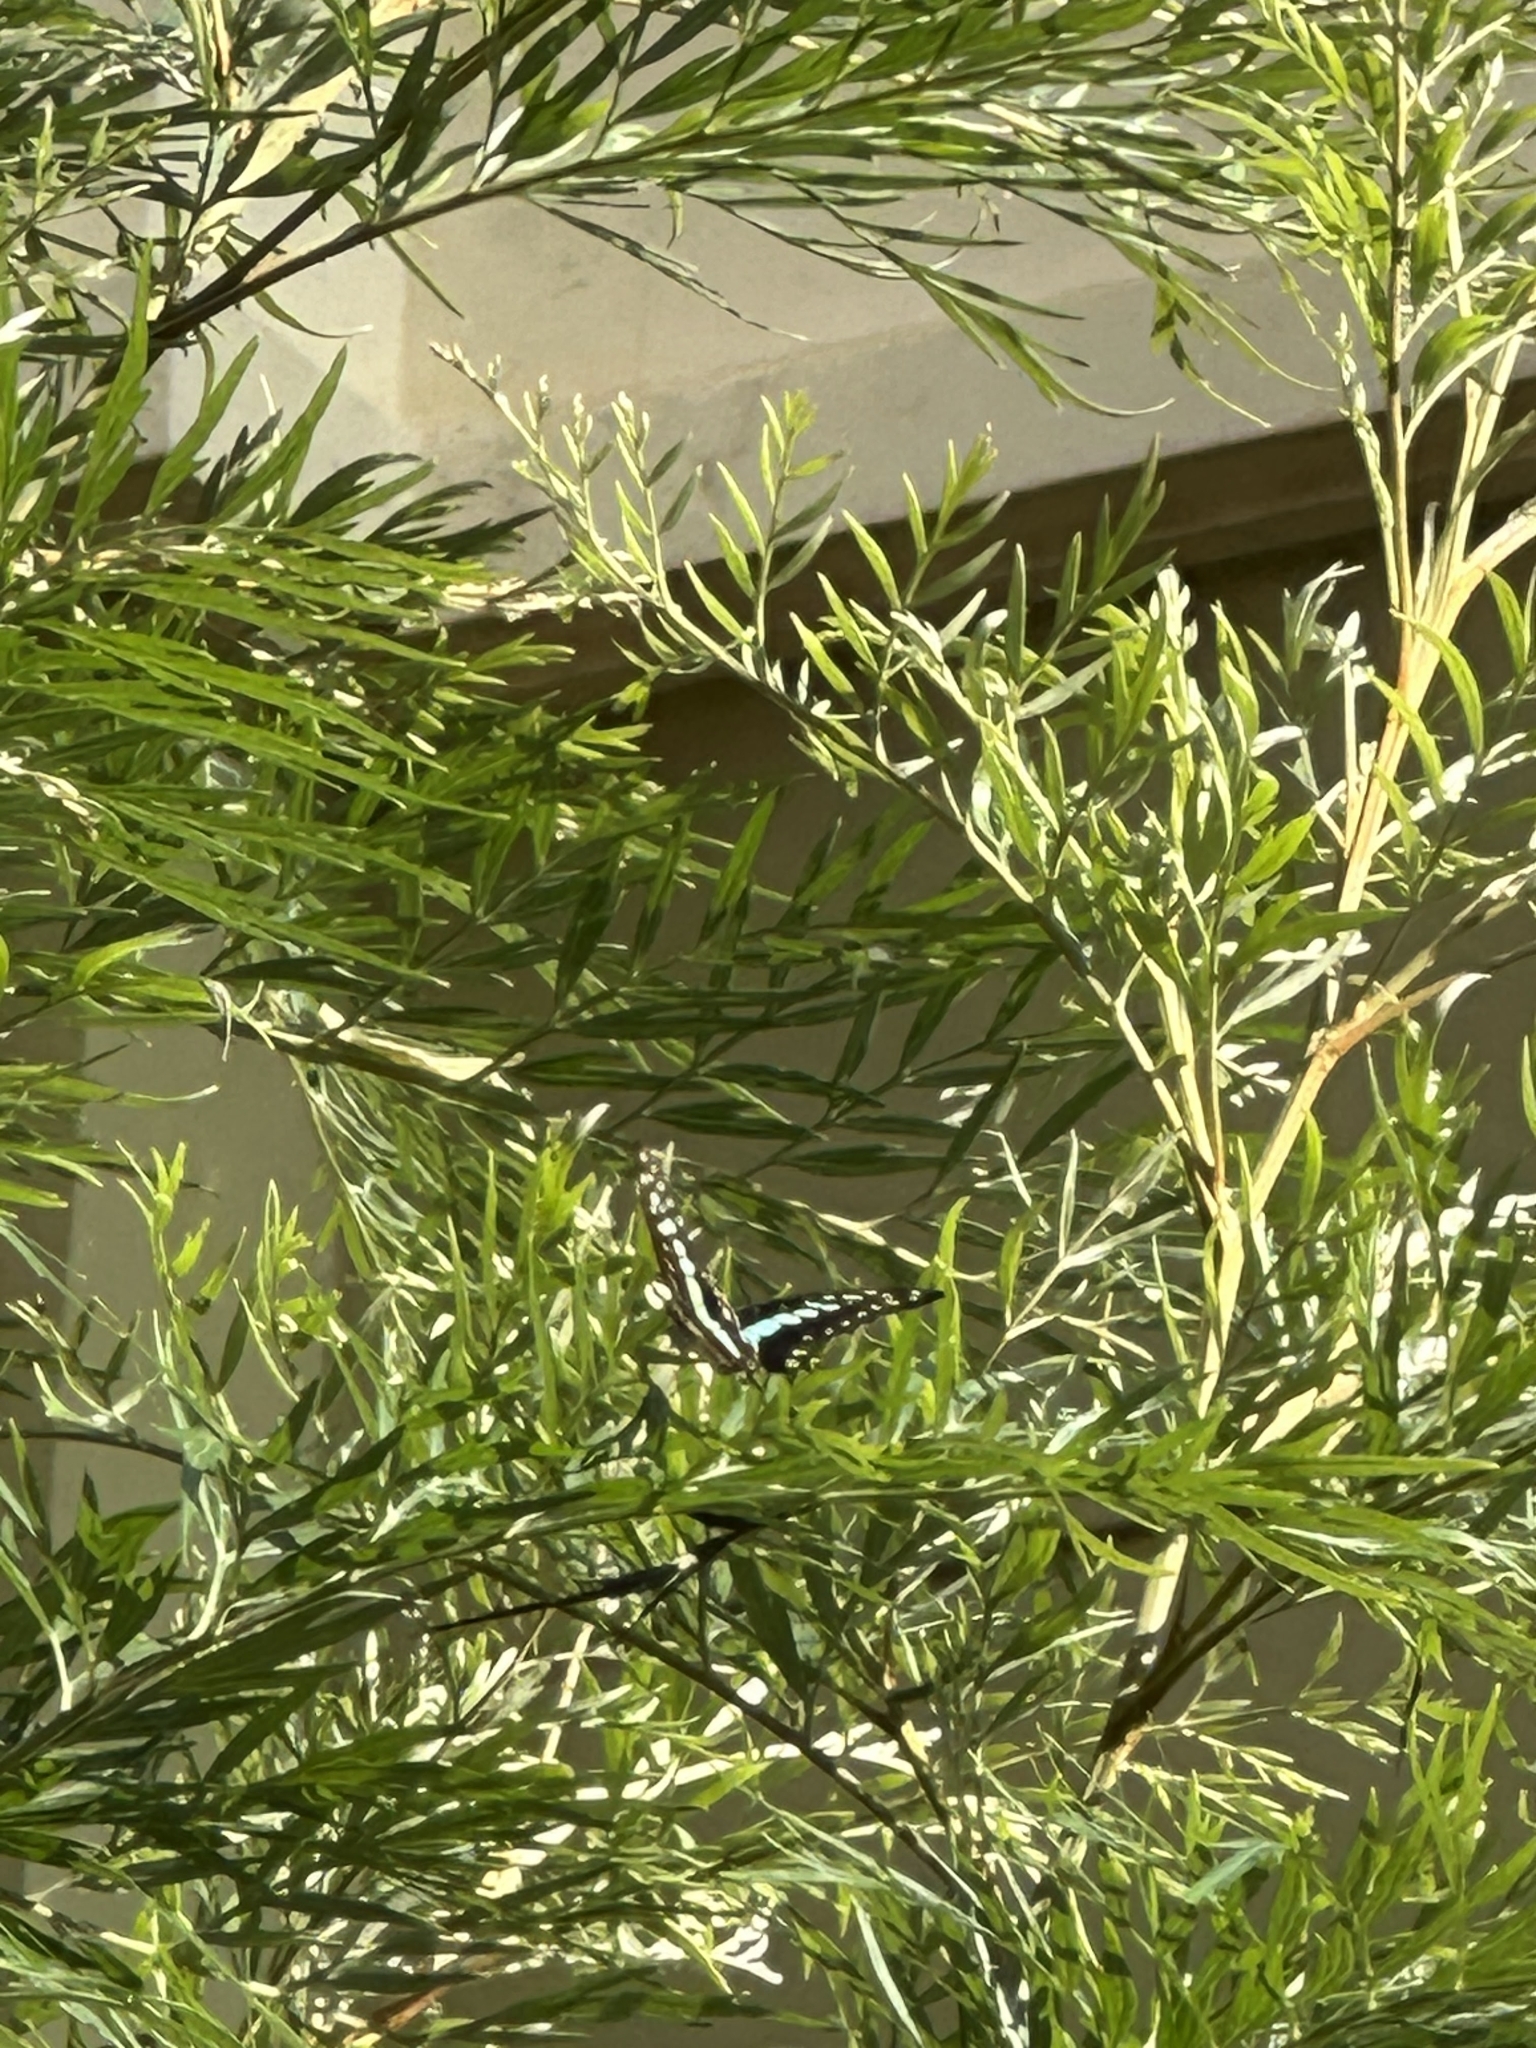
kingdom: Animalia
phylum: Arthropoda
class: Insecta
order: Lepidoptera
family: Papilionidae
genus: Graphium
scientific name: Graphium doson
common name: Common jay
